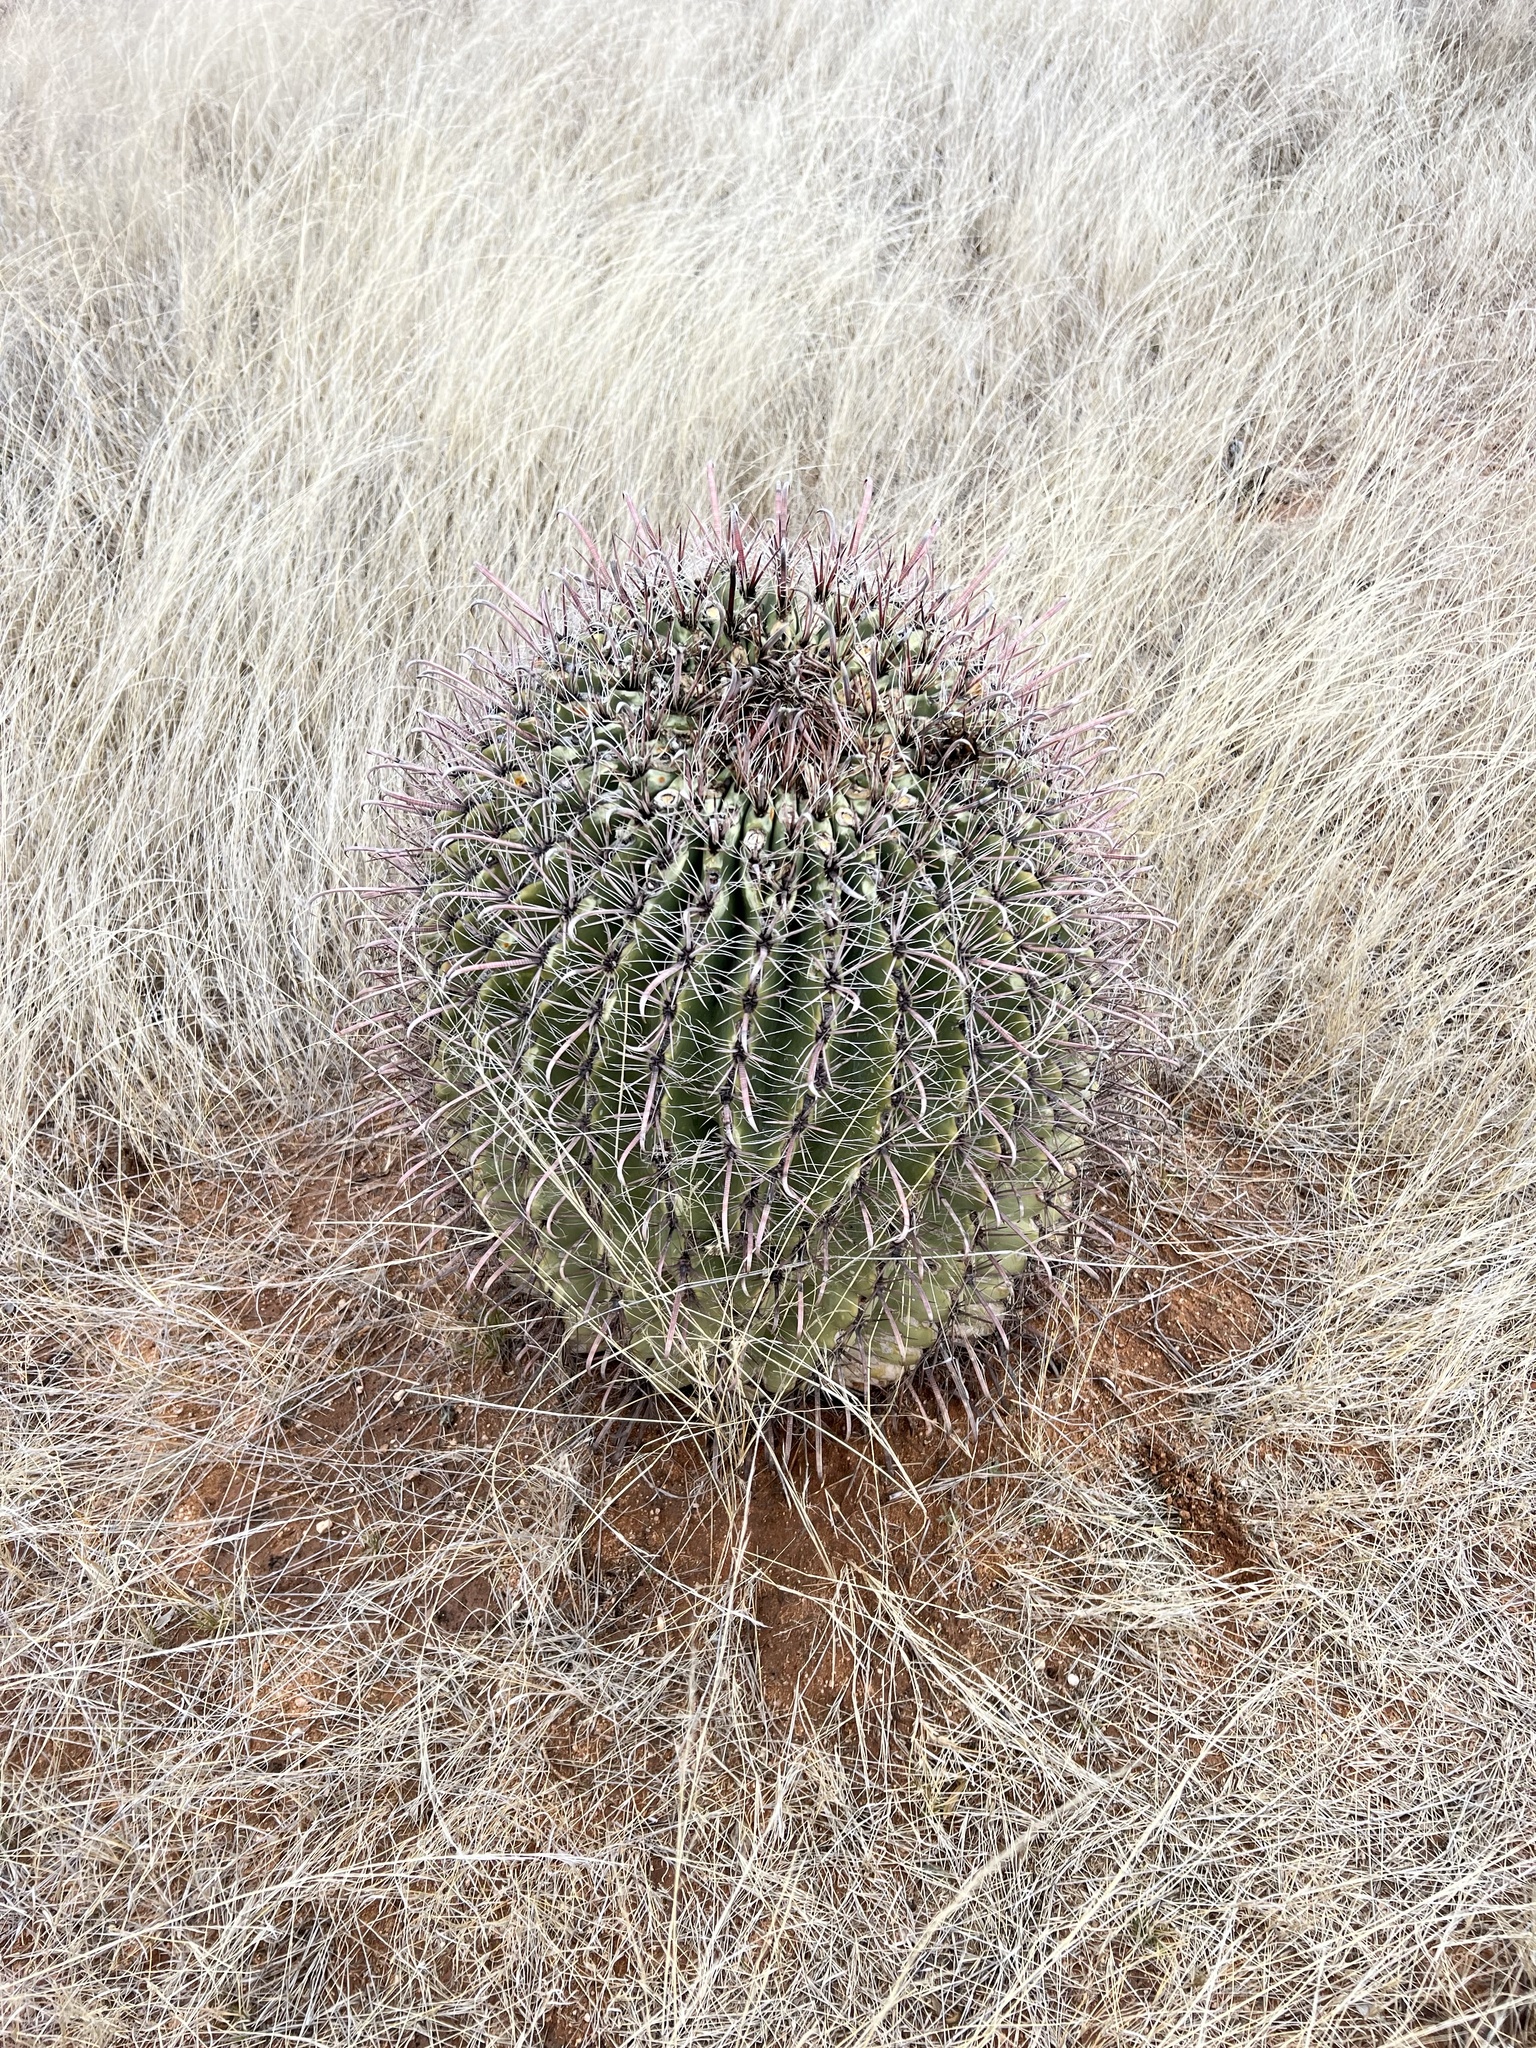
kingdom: Plantae
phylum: Tracheophyta
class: Magnoliopsida
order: Caryophyllales
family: Cactaceae
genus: Ferocactus
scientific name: Ferocactus wislizeni
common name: Candy barrel cactus
